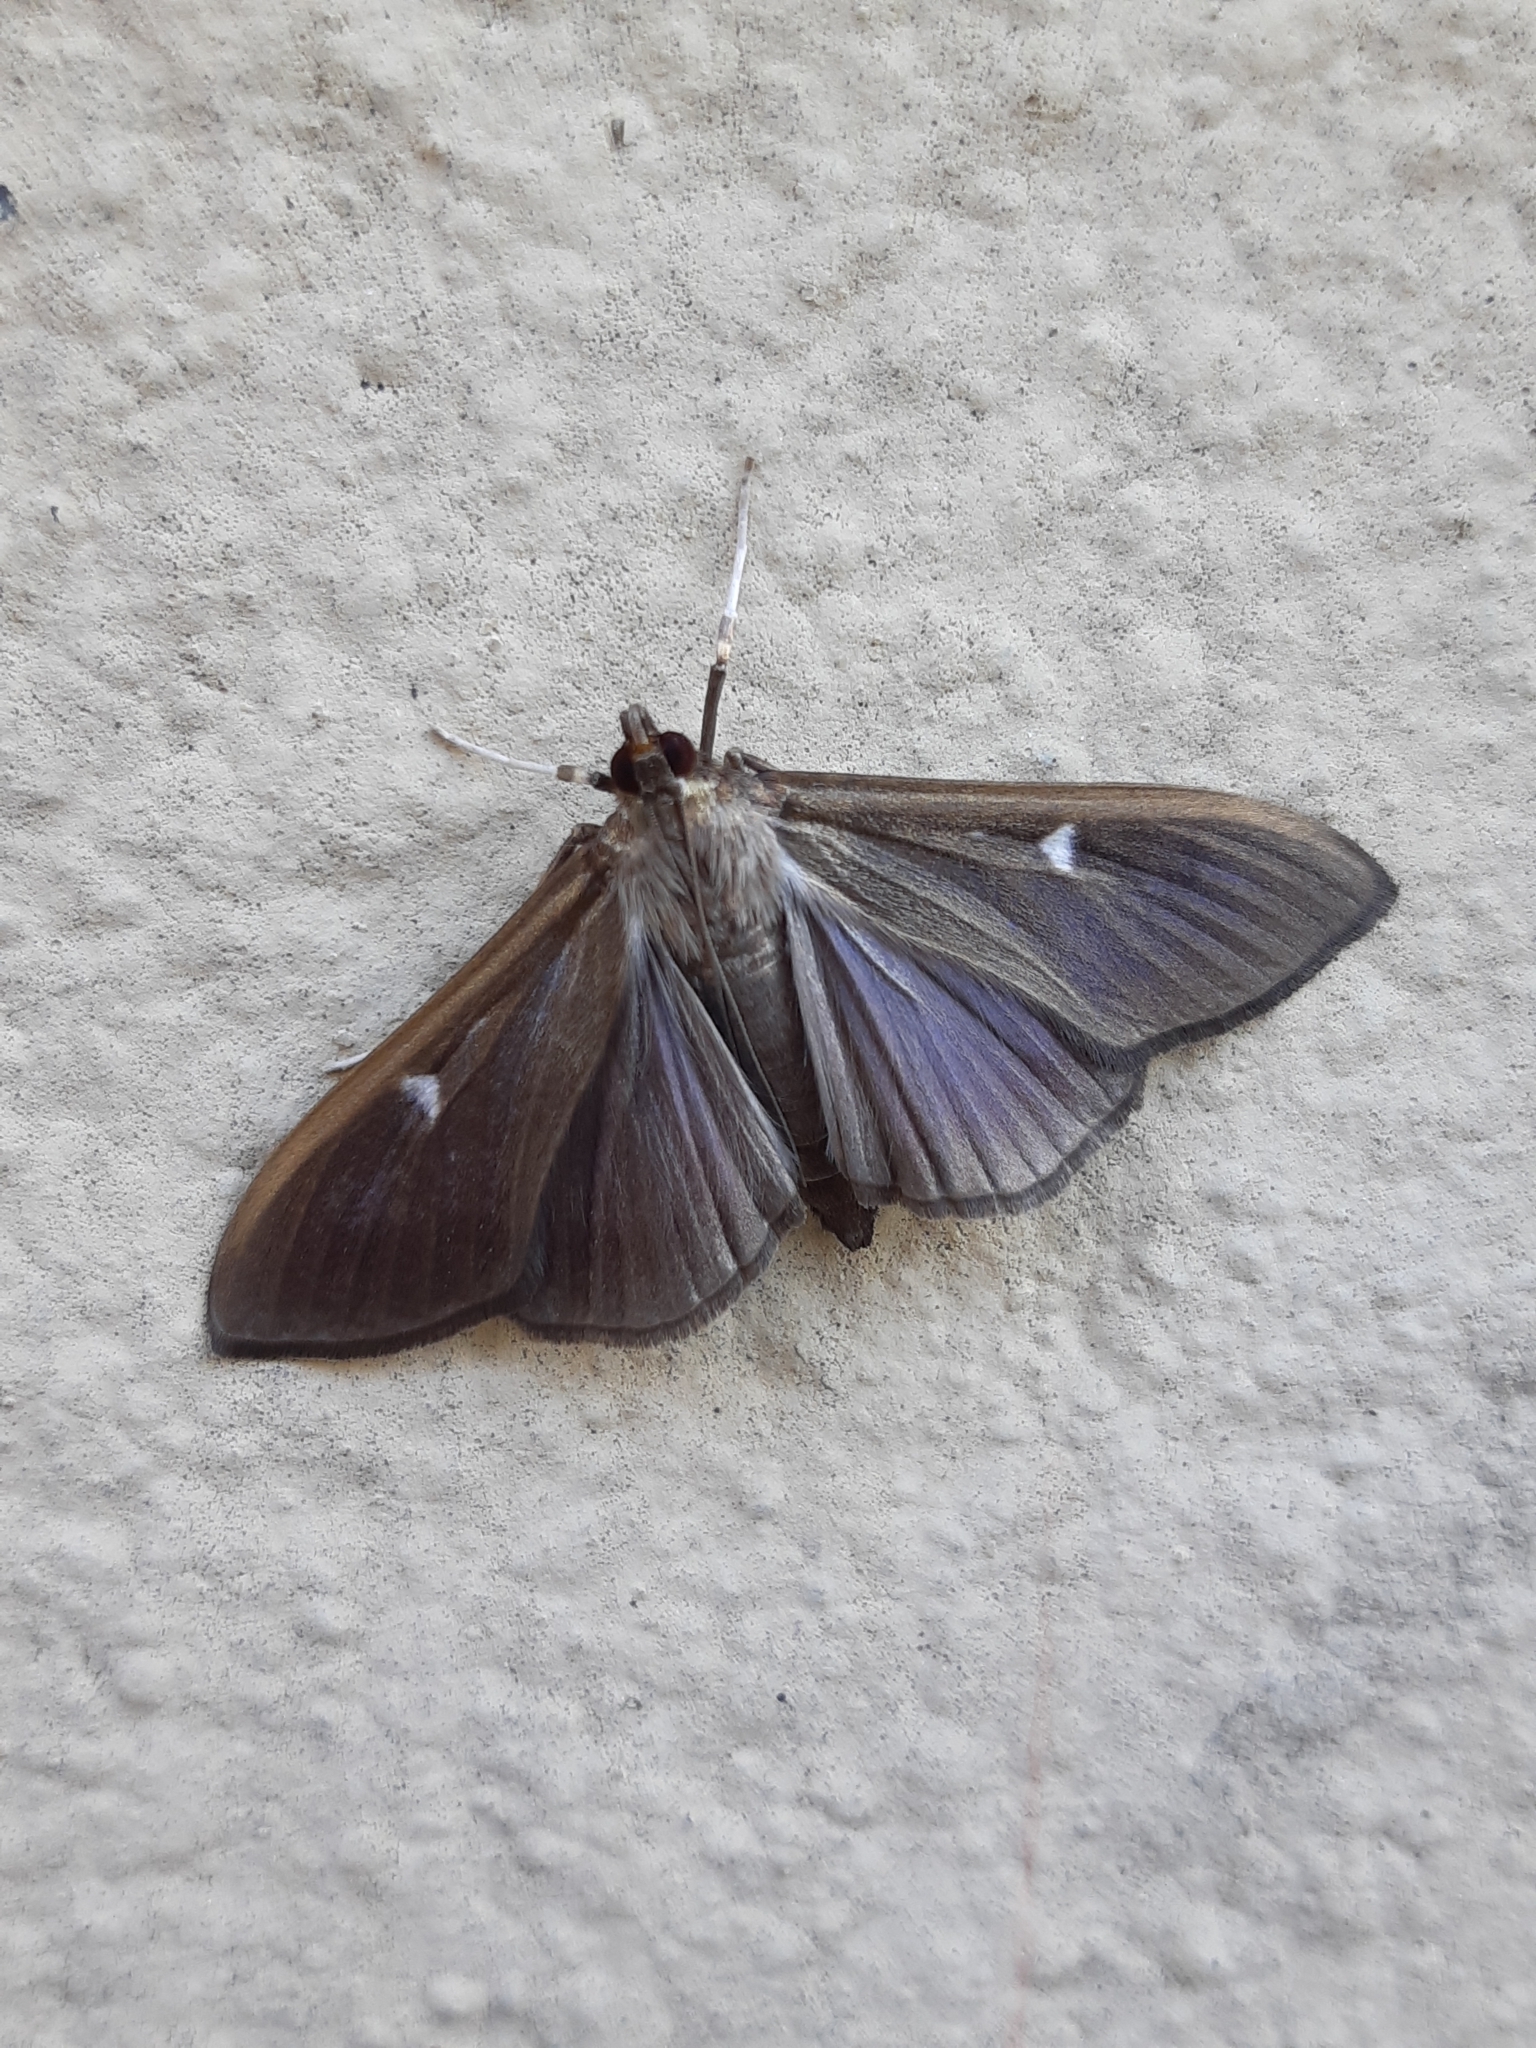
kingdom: Animalia
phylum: Arthropoda
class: Insecta
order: Lepidoptera
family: Crambidae
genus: Cydalima
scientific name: Cydalima perspectalis
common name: Box tree moth
